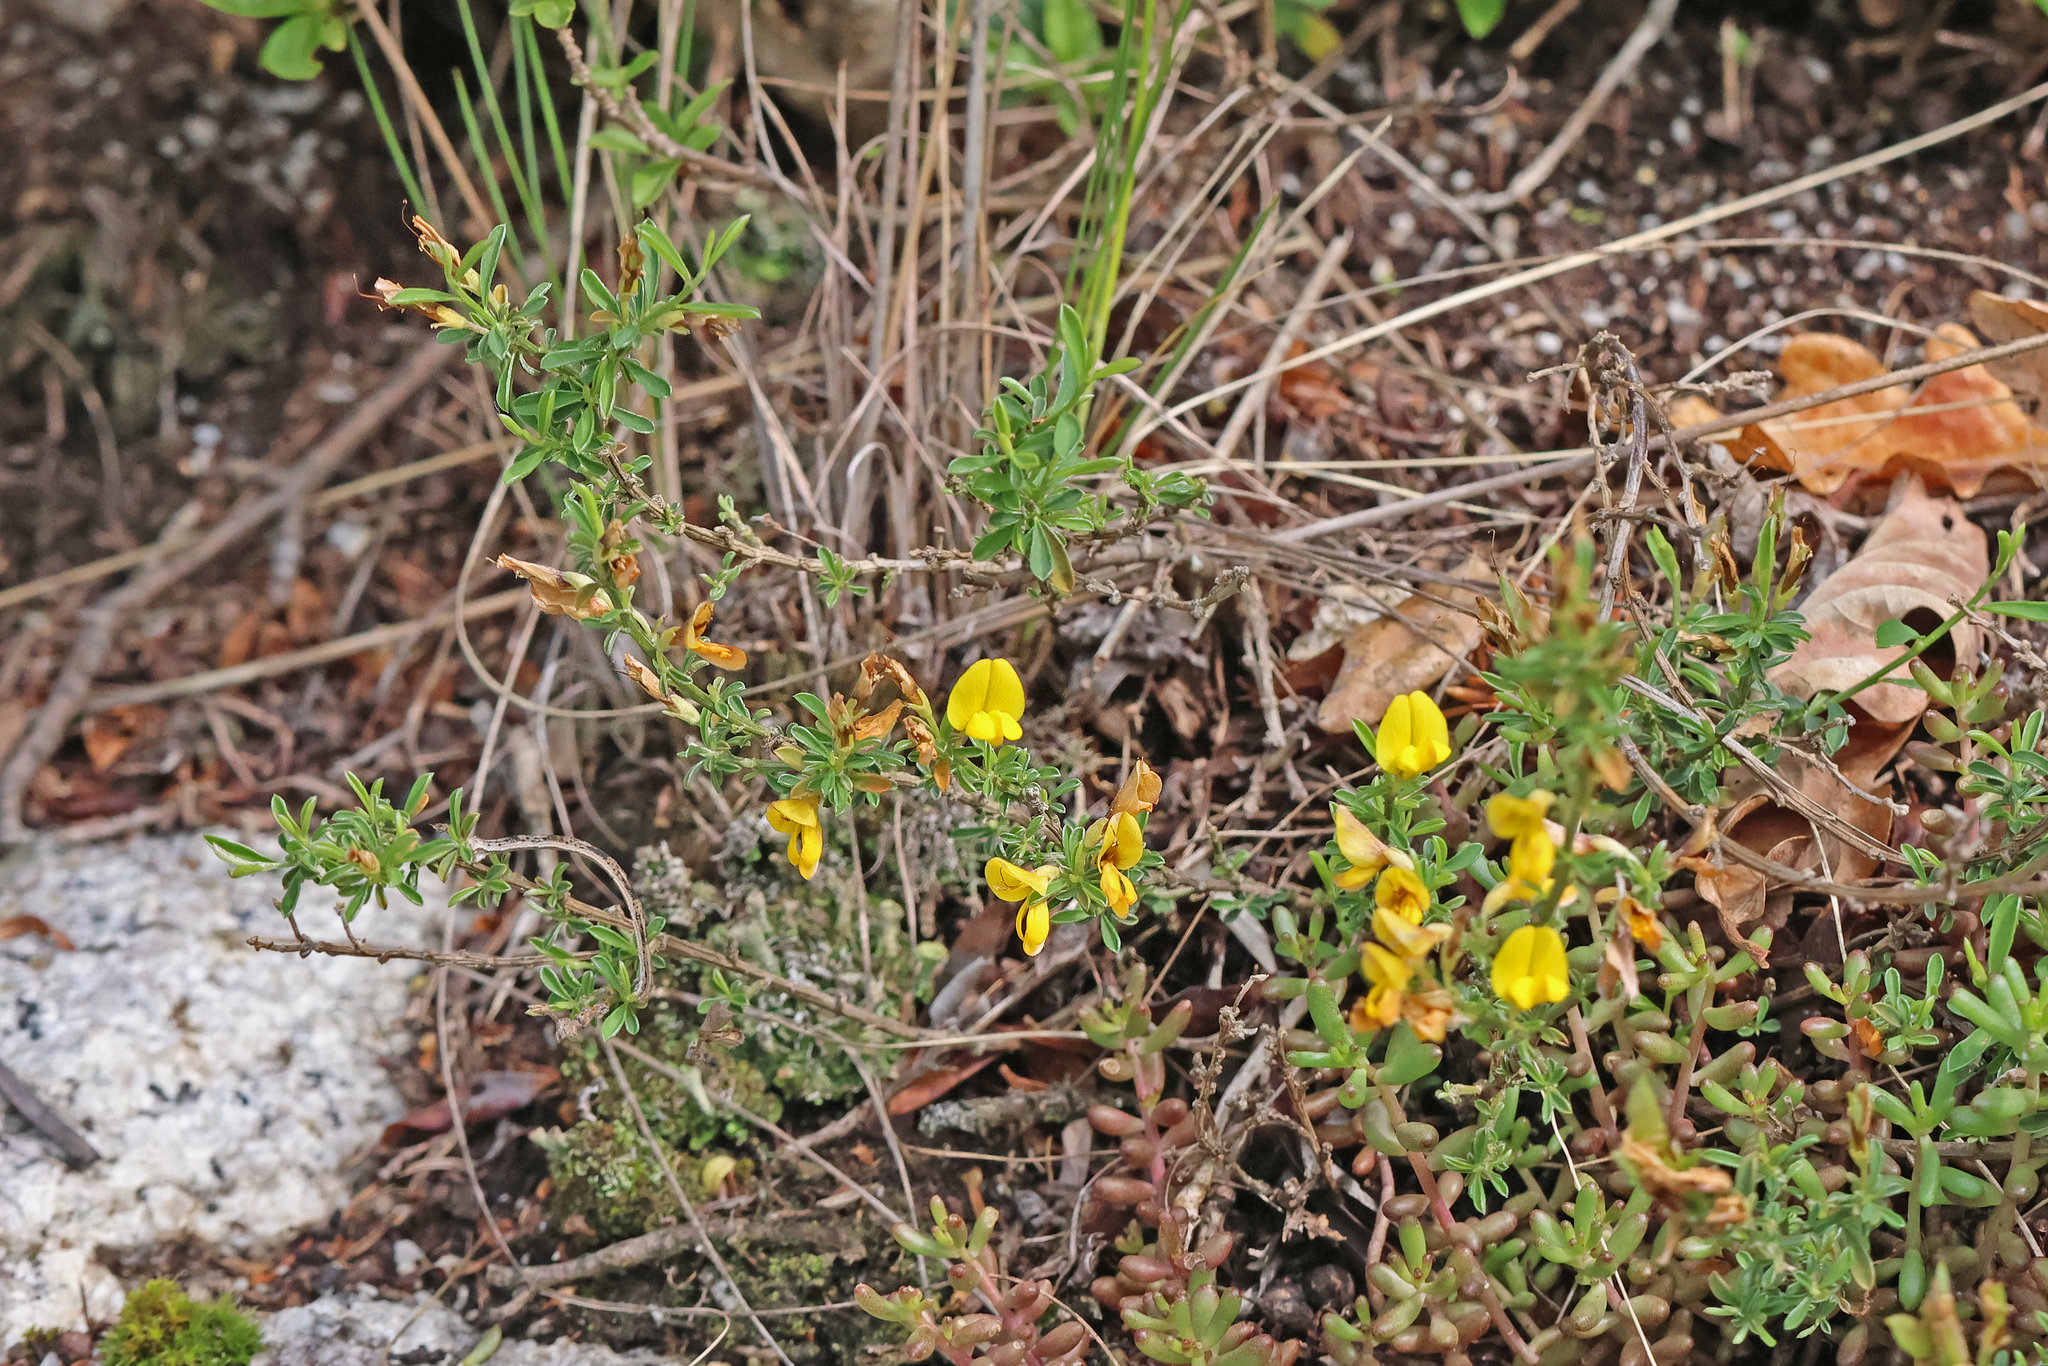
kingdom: Plantae
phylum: Tracheophyta
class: Magnoliopsida
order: Fabales
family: Fabaceae
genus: Genista
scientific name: Genista pilosa
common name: Hairy greenweed
